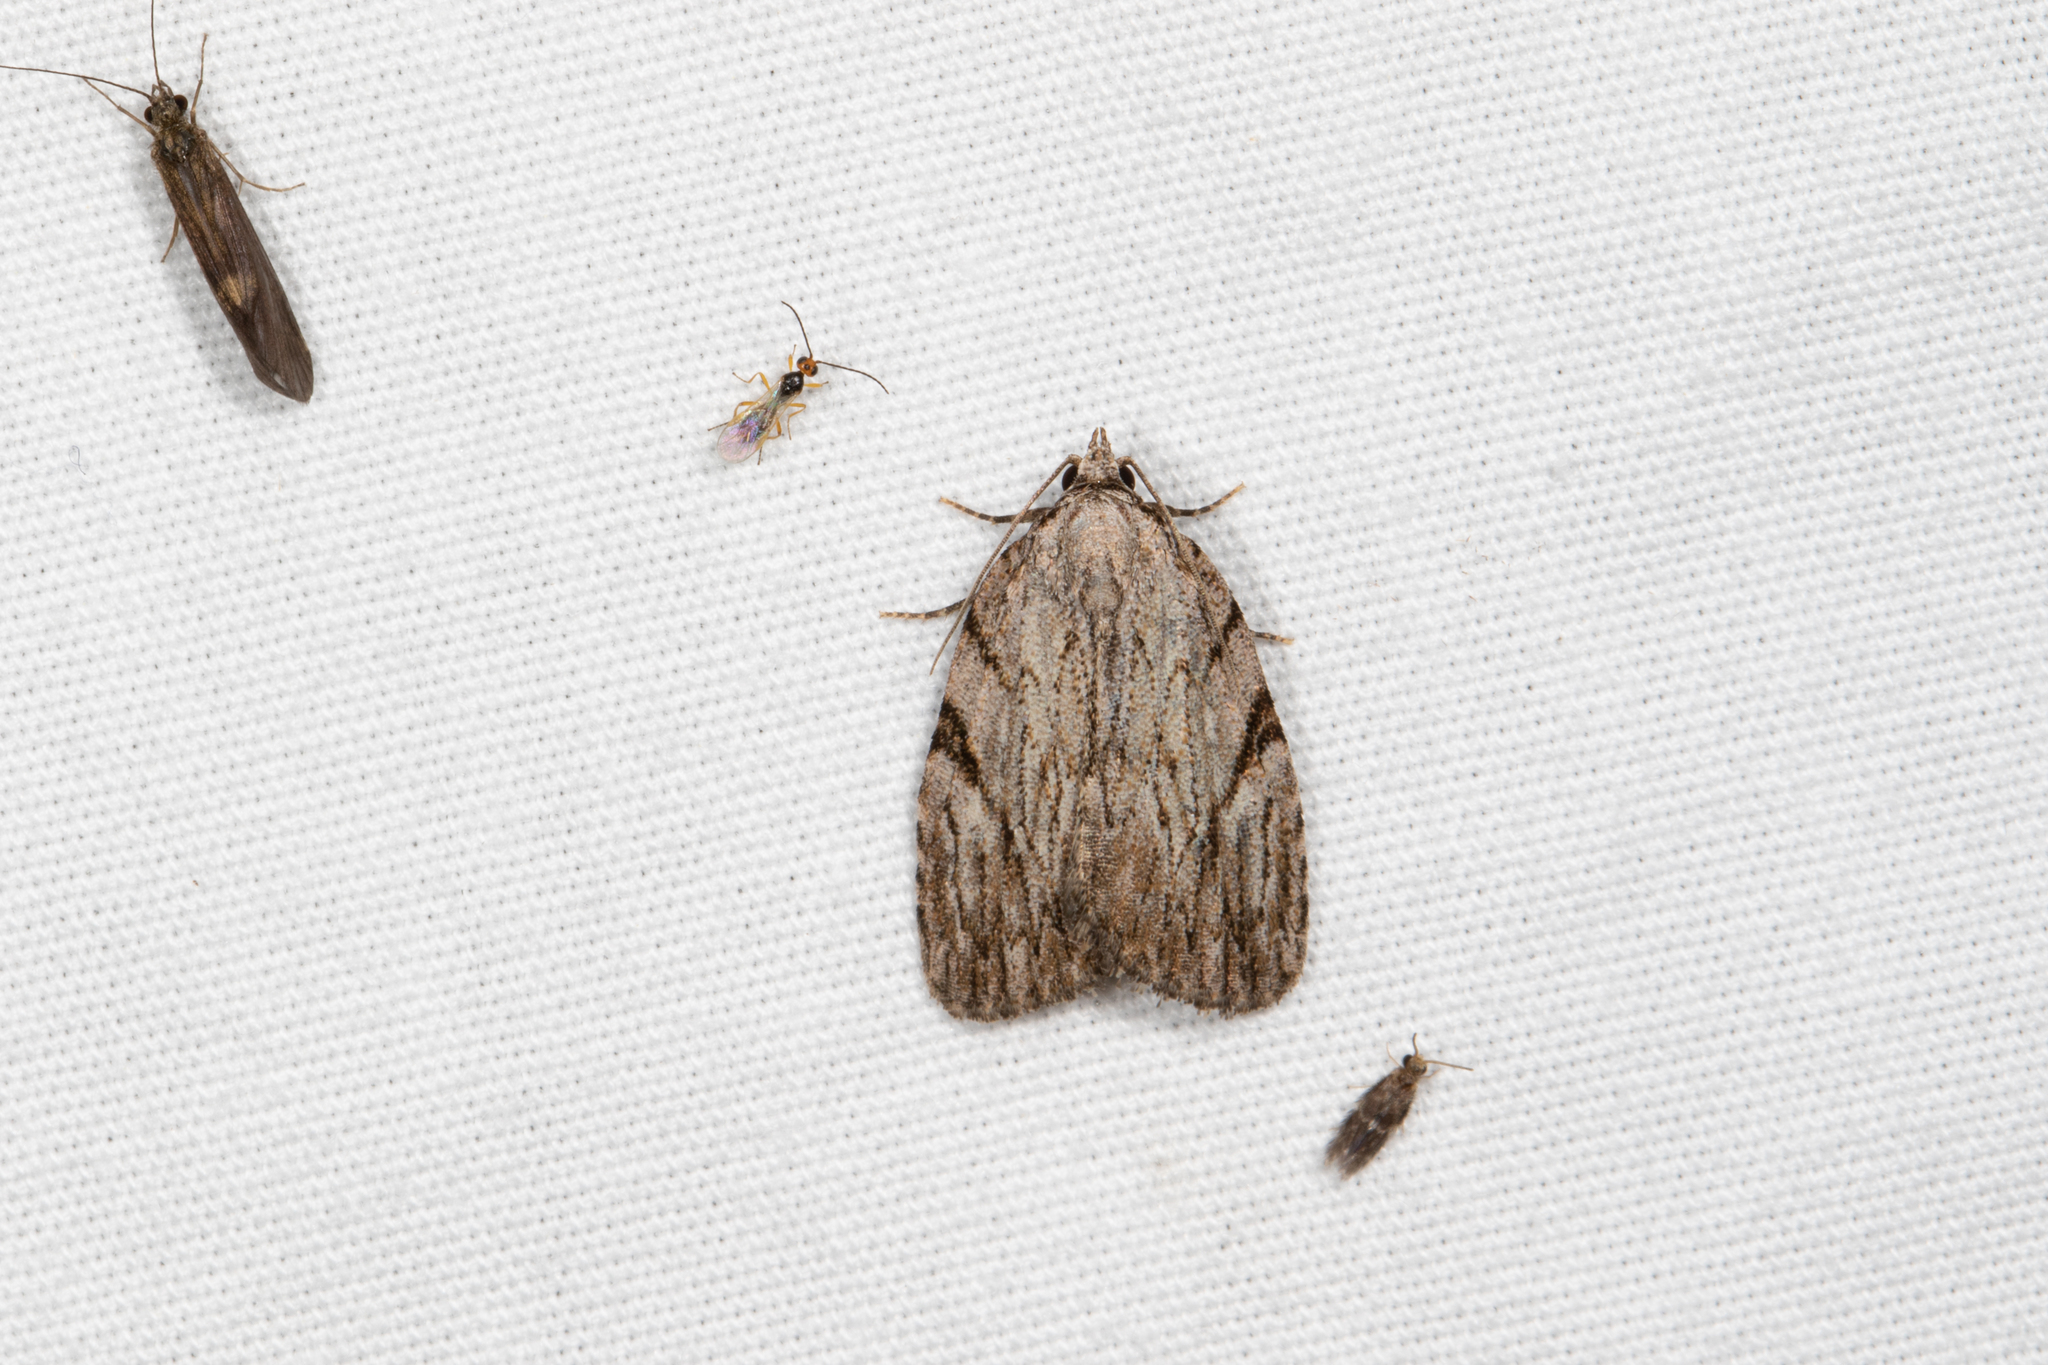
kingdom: Animalia
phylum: Arthropoda
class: Insecta
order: Lepidoptera
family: Noctuidae
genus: Balsa
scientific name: Balsa tristrigella
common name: Three-lined balsa moth
